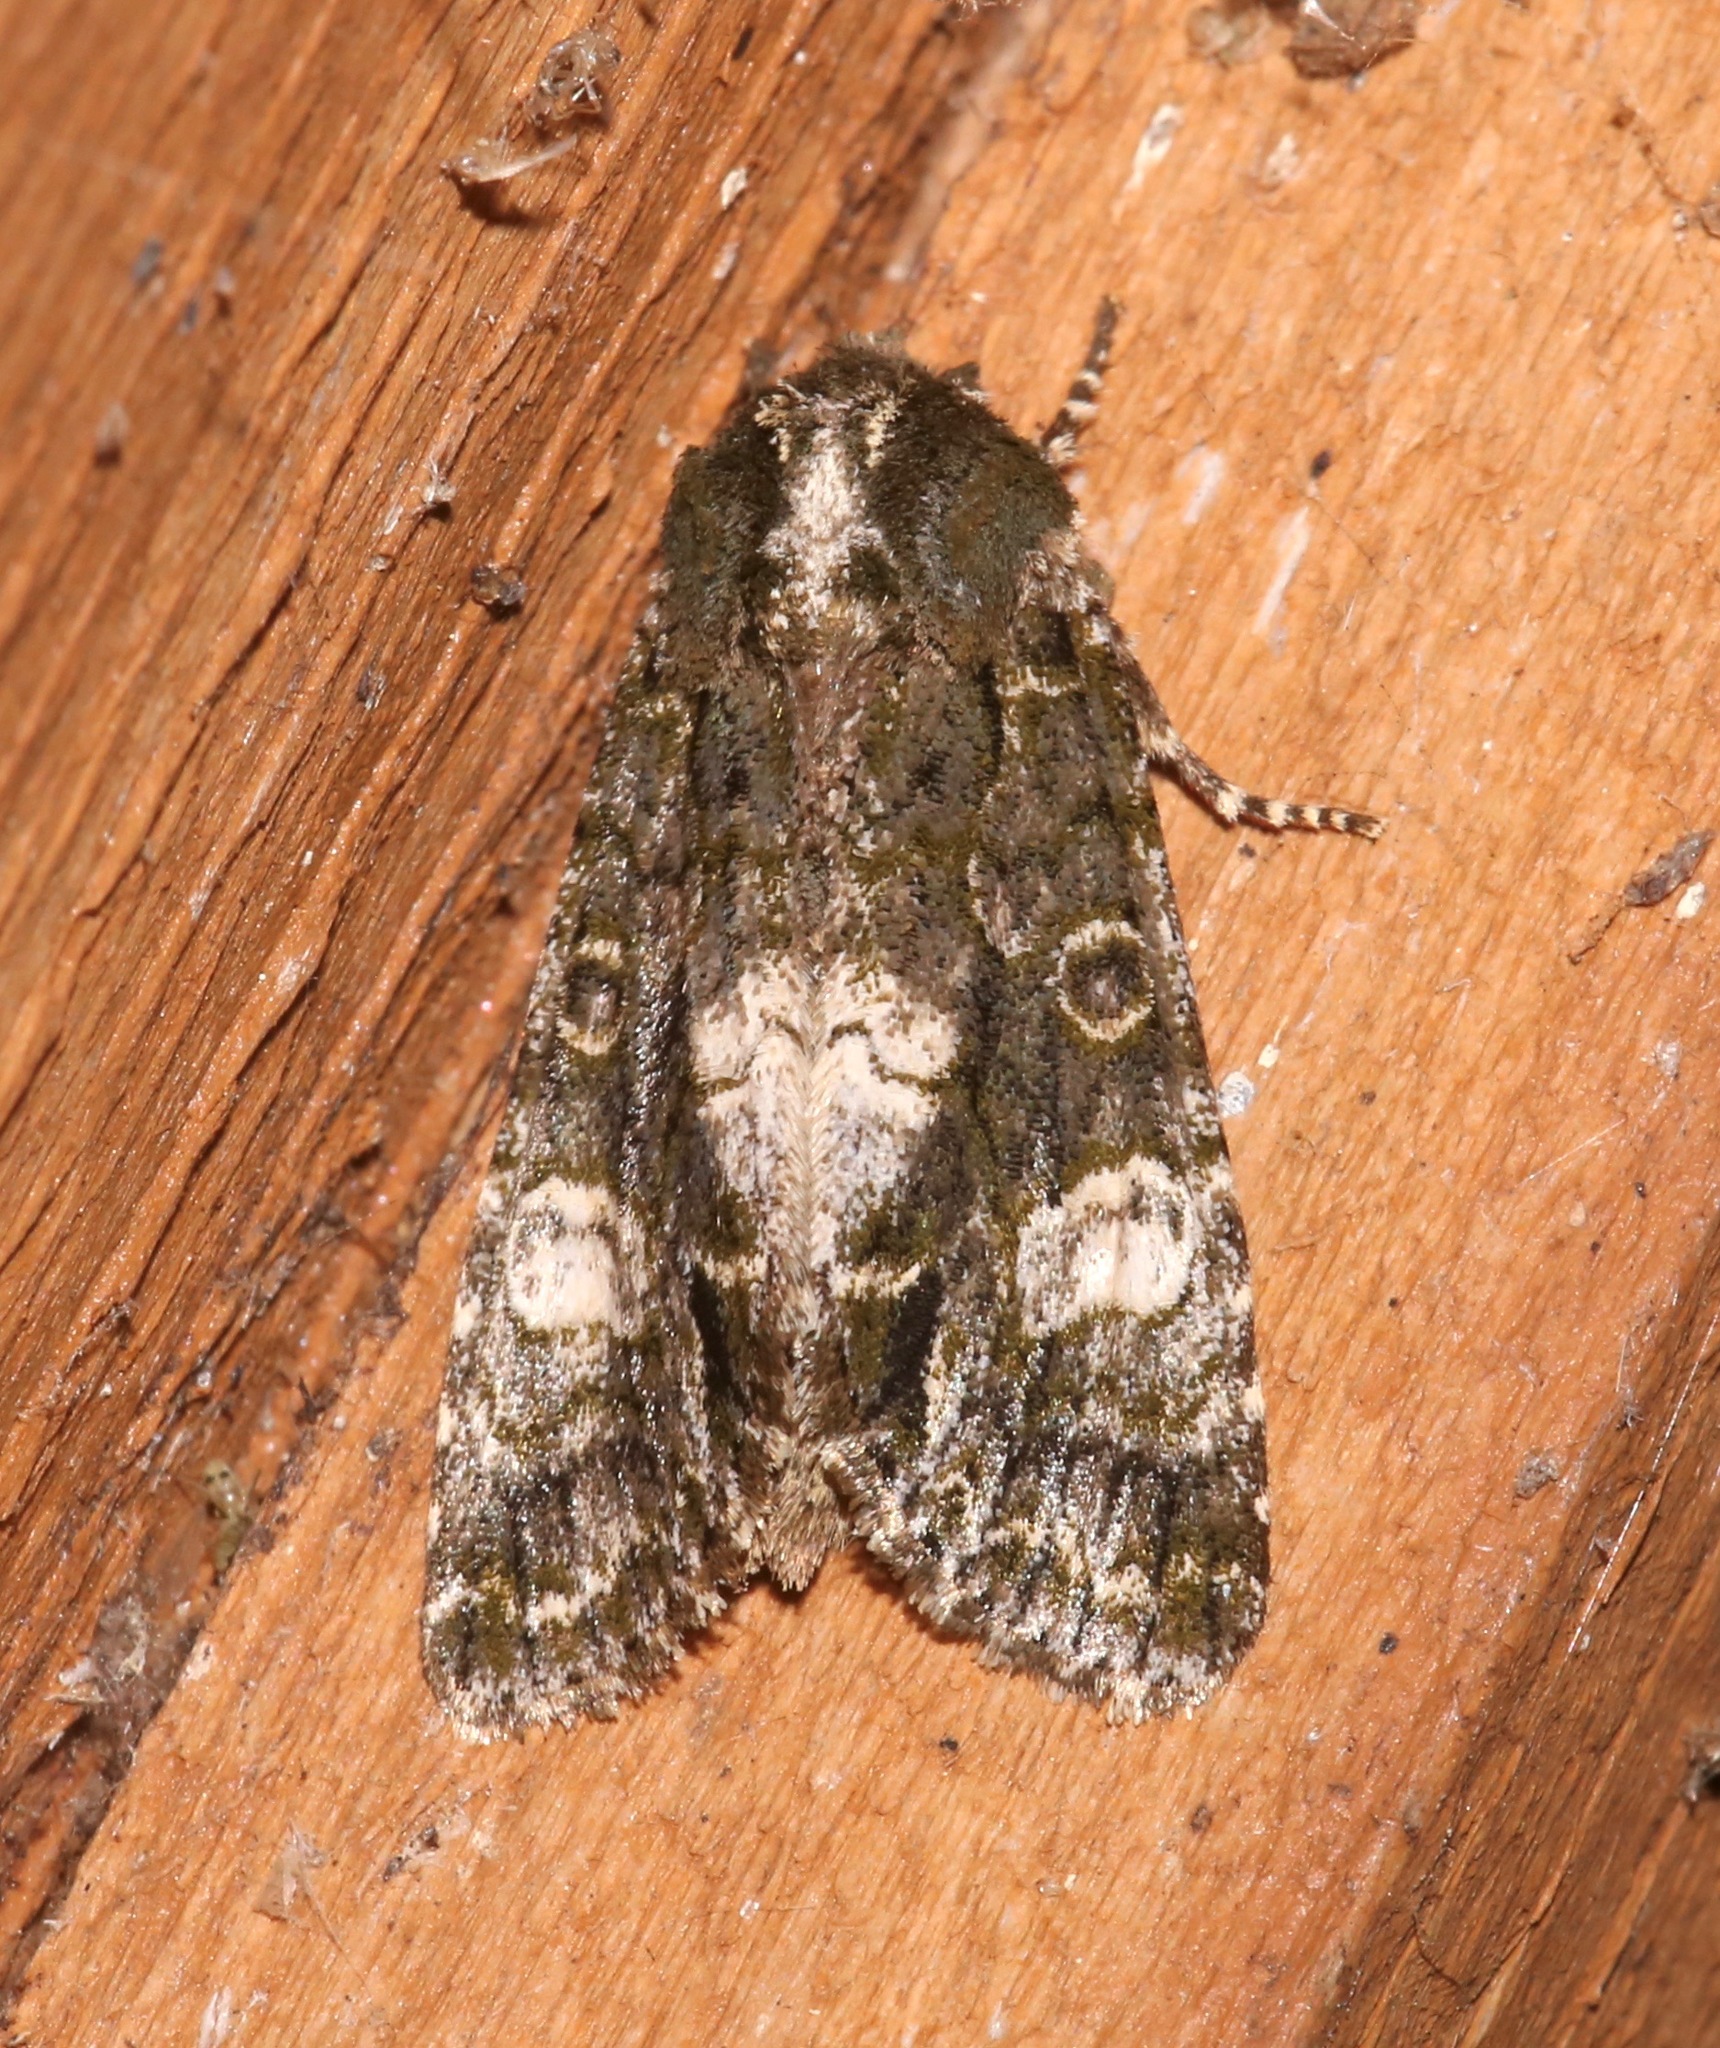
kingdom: Animalia
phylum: Arthropoda
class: Insecta
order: Lepidoptera
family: Noctuidae
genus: Psaphida
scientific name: Psaphida grotei
